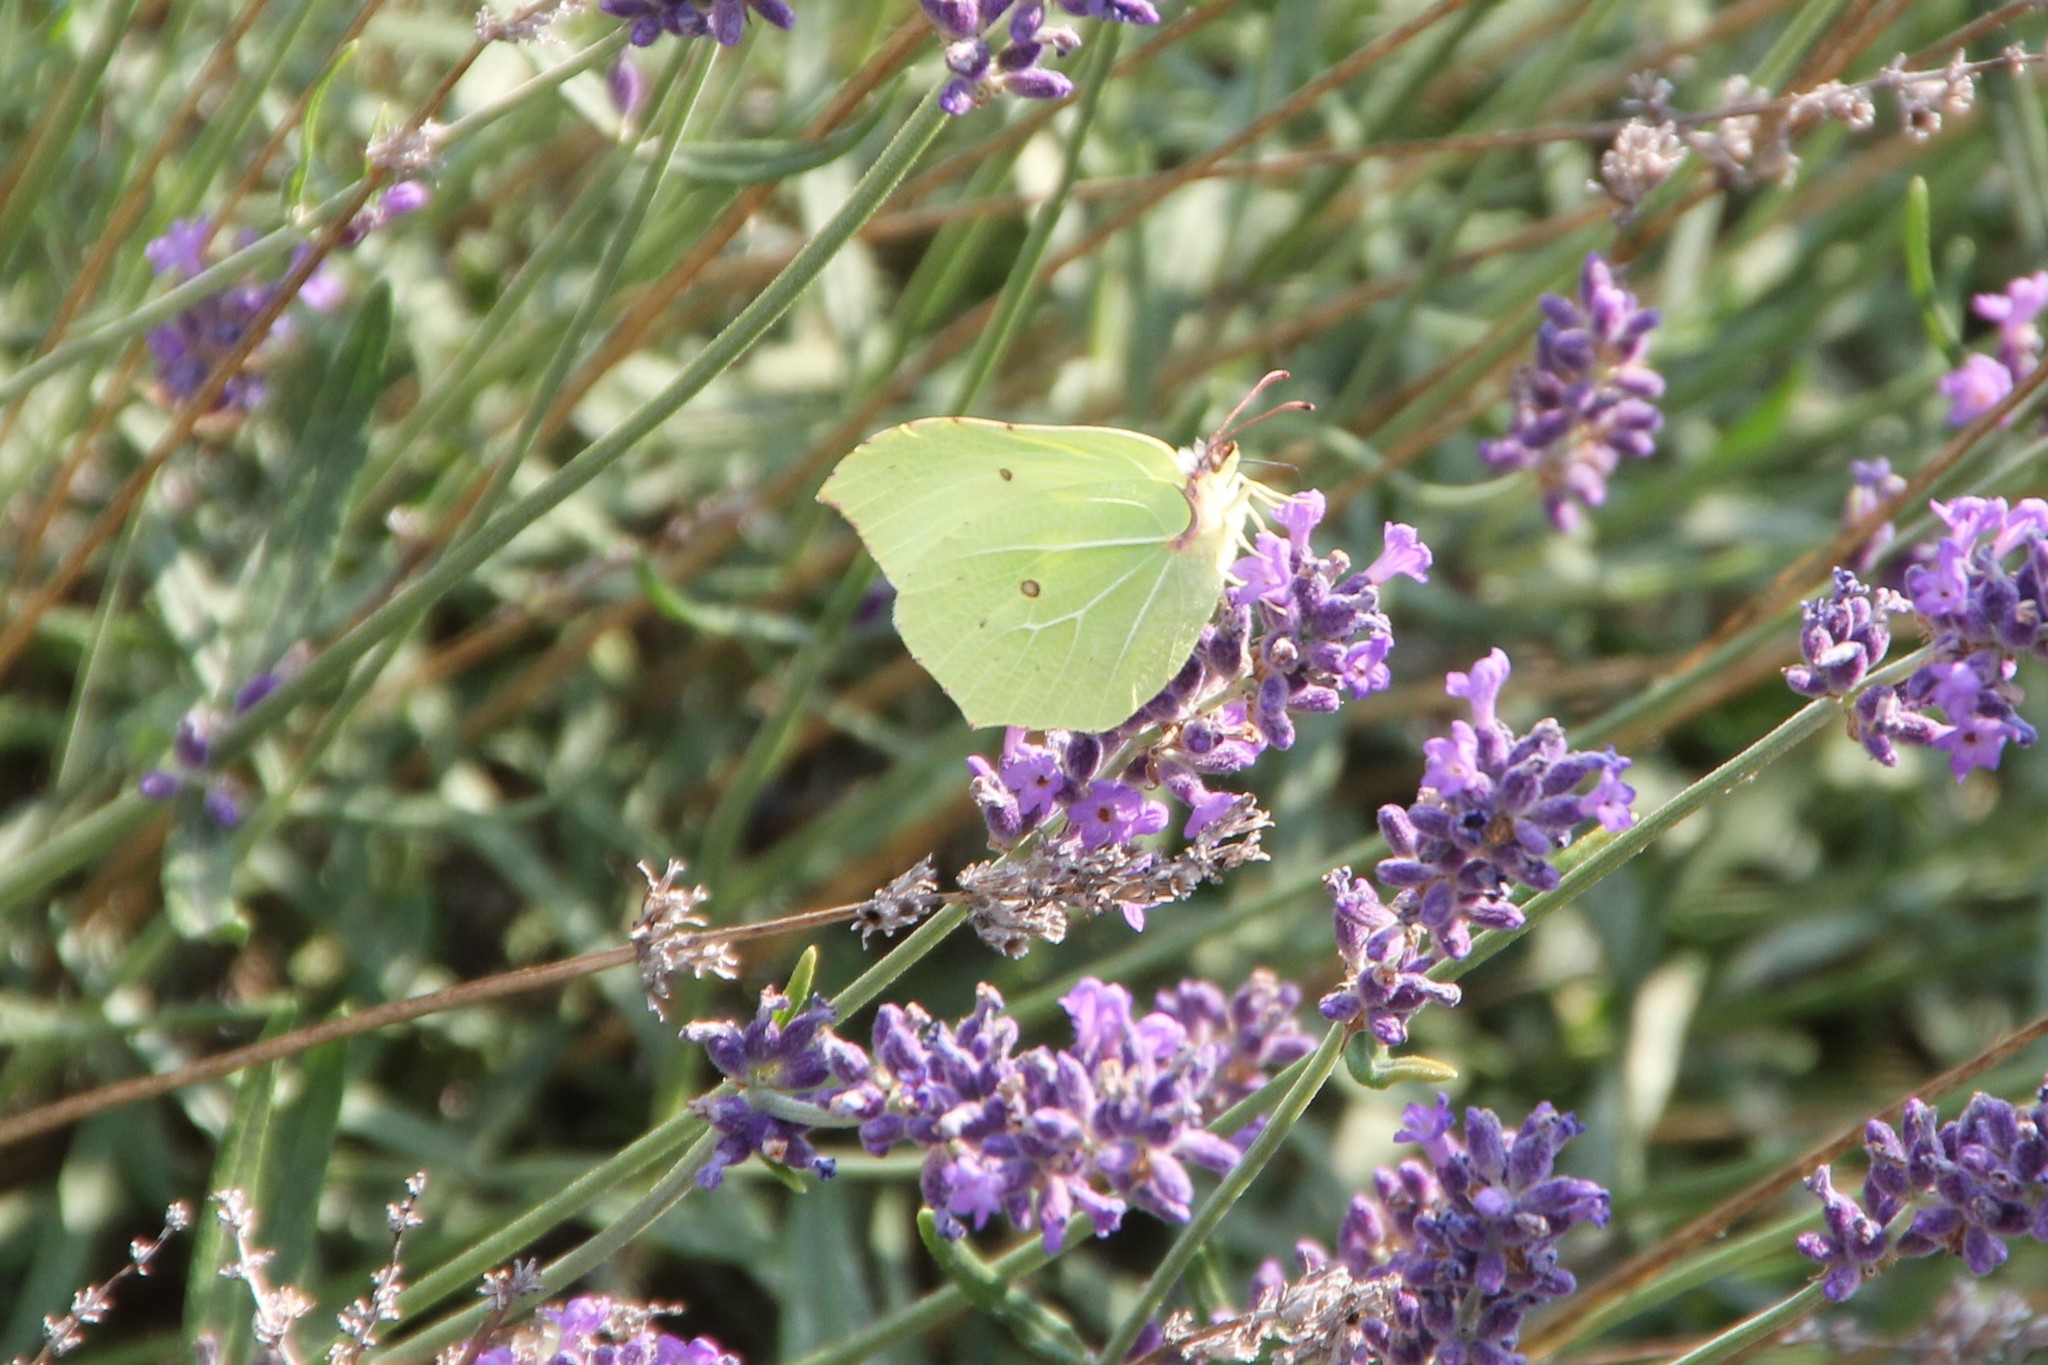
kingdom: Animalia
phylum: Arthropoda
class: Insecta
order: Lepidoptera
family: Pieridae
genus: Gonepteryx
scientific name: Gonepteryx rhamni
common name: Brimstone
